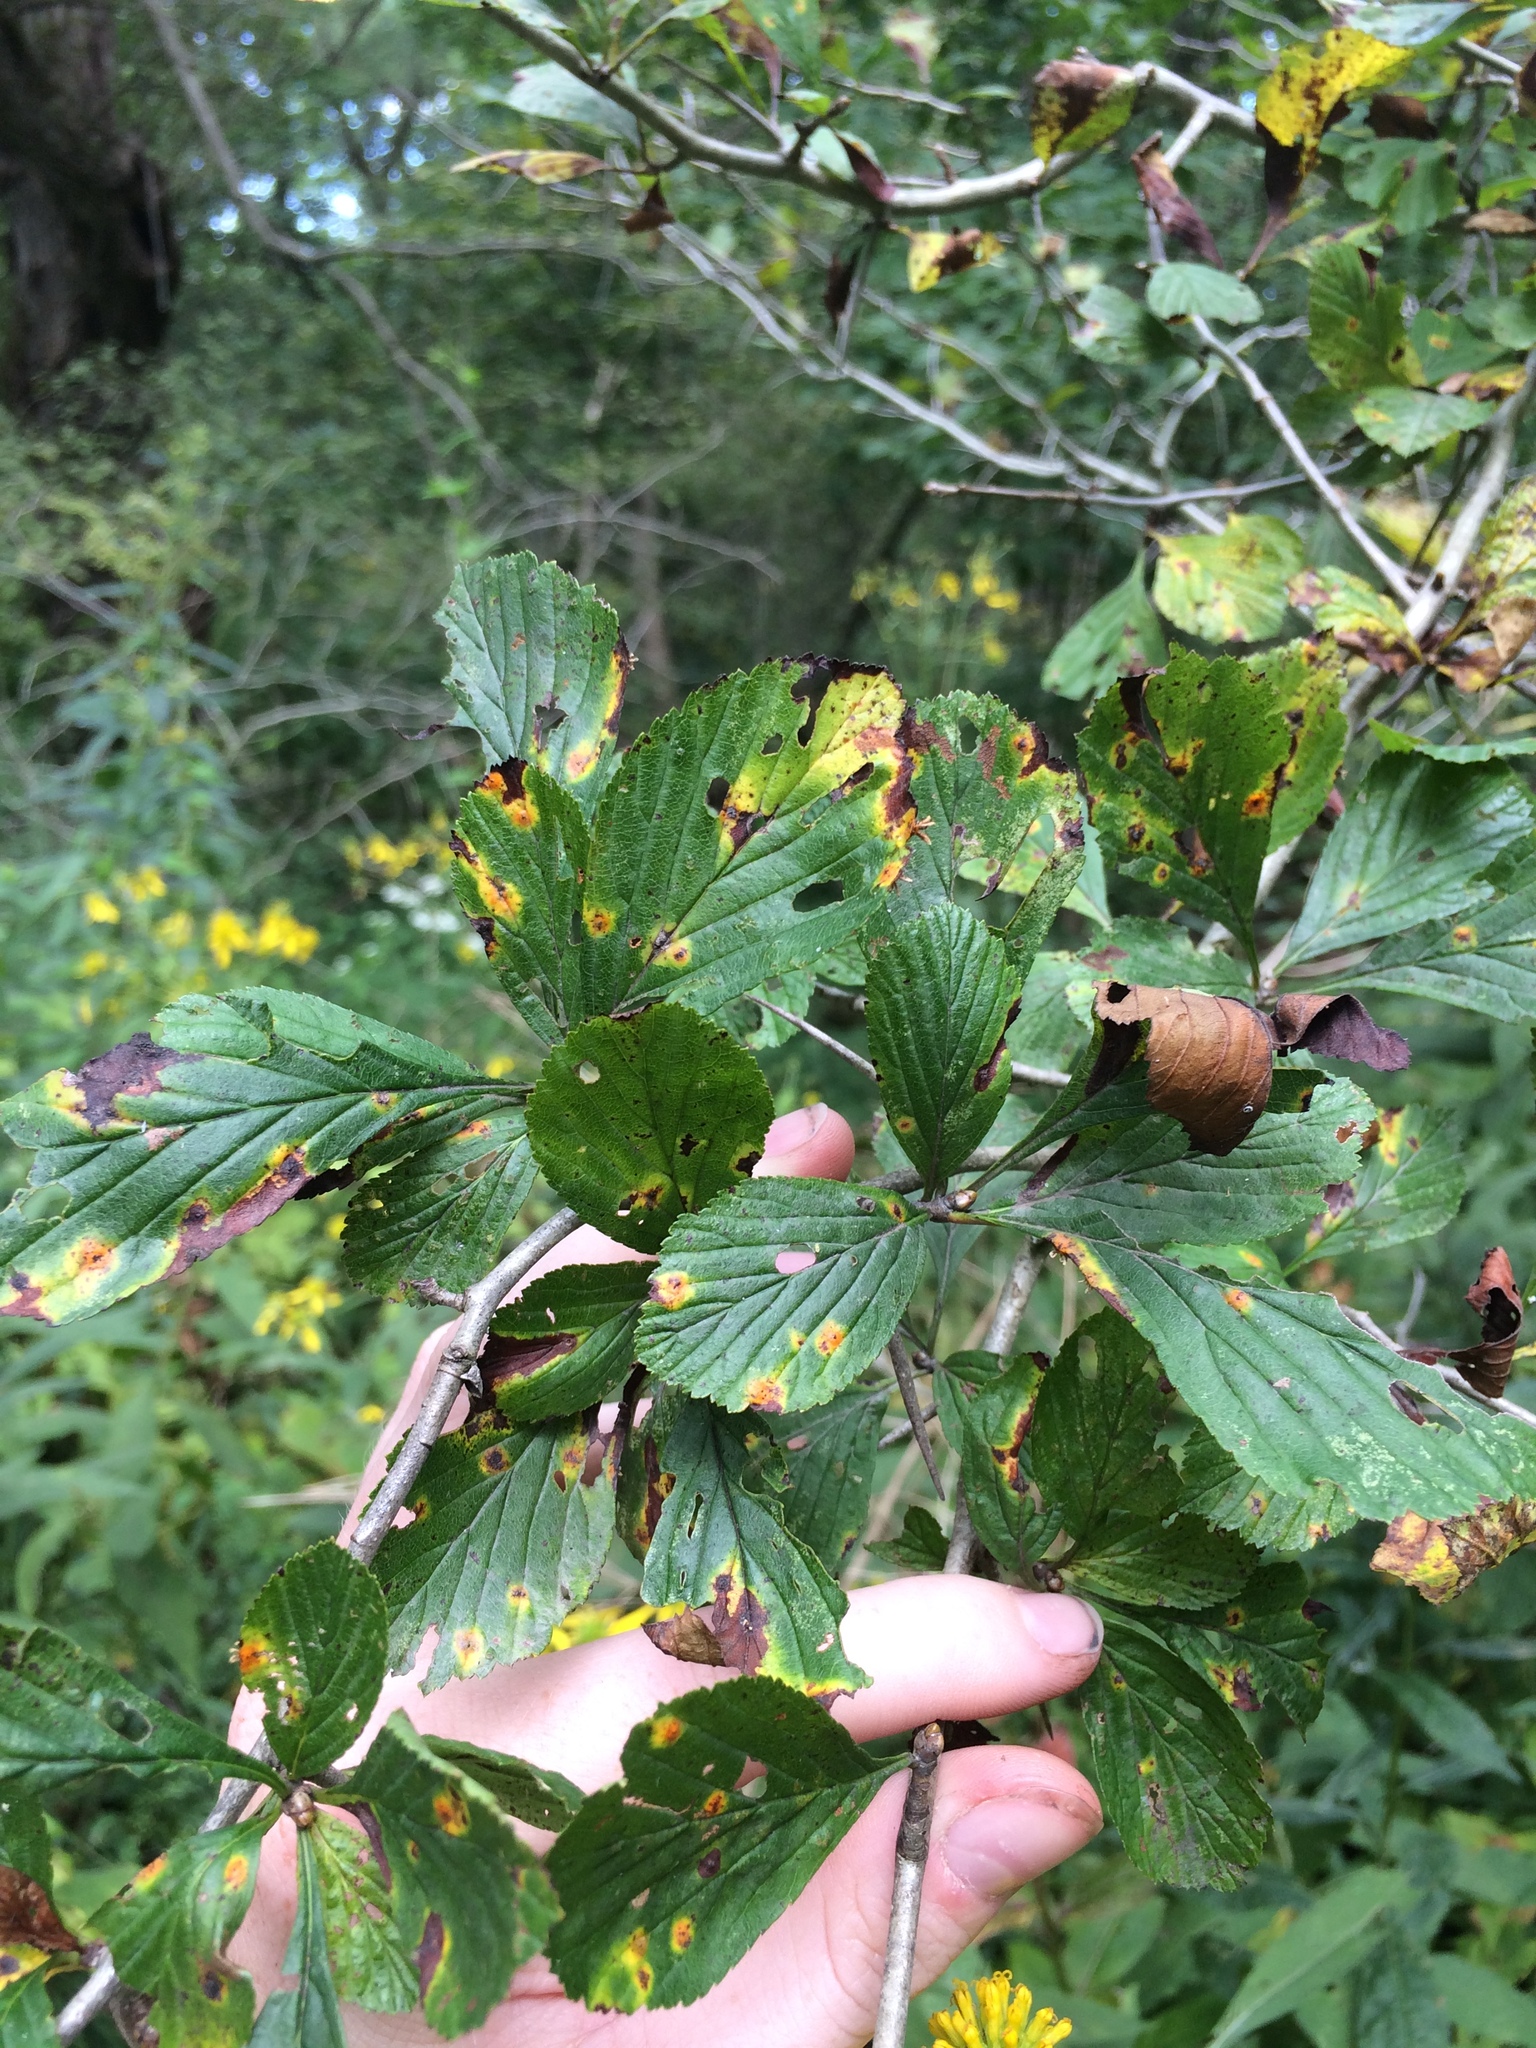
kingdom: Plantae
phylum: Tracheophyta
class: Magnoliopsida
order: Rosales
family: Rosaceae
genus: Crataegus
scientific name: Crataegus punctata
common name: Dotted hawthorn
